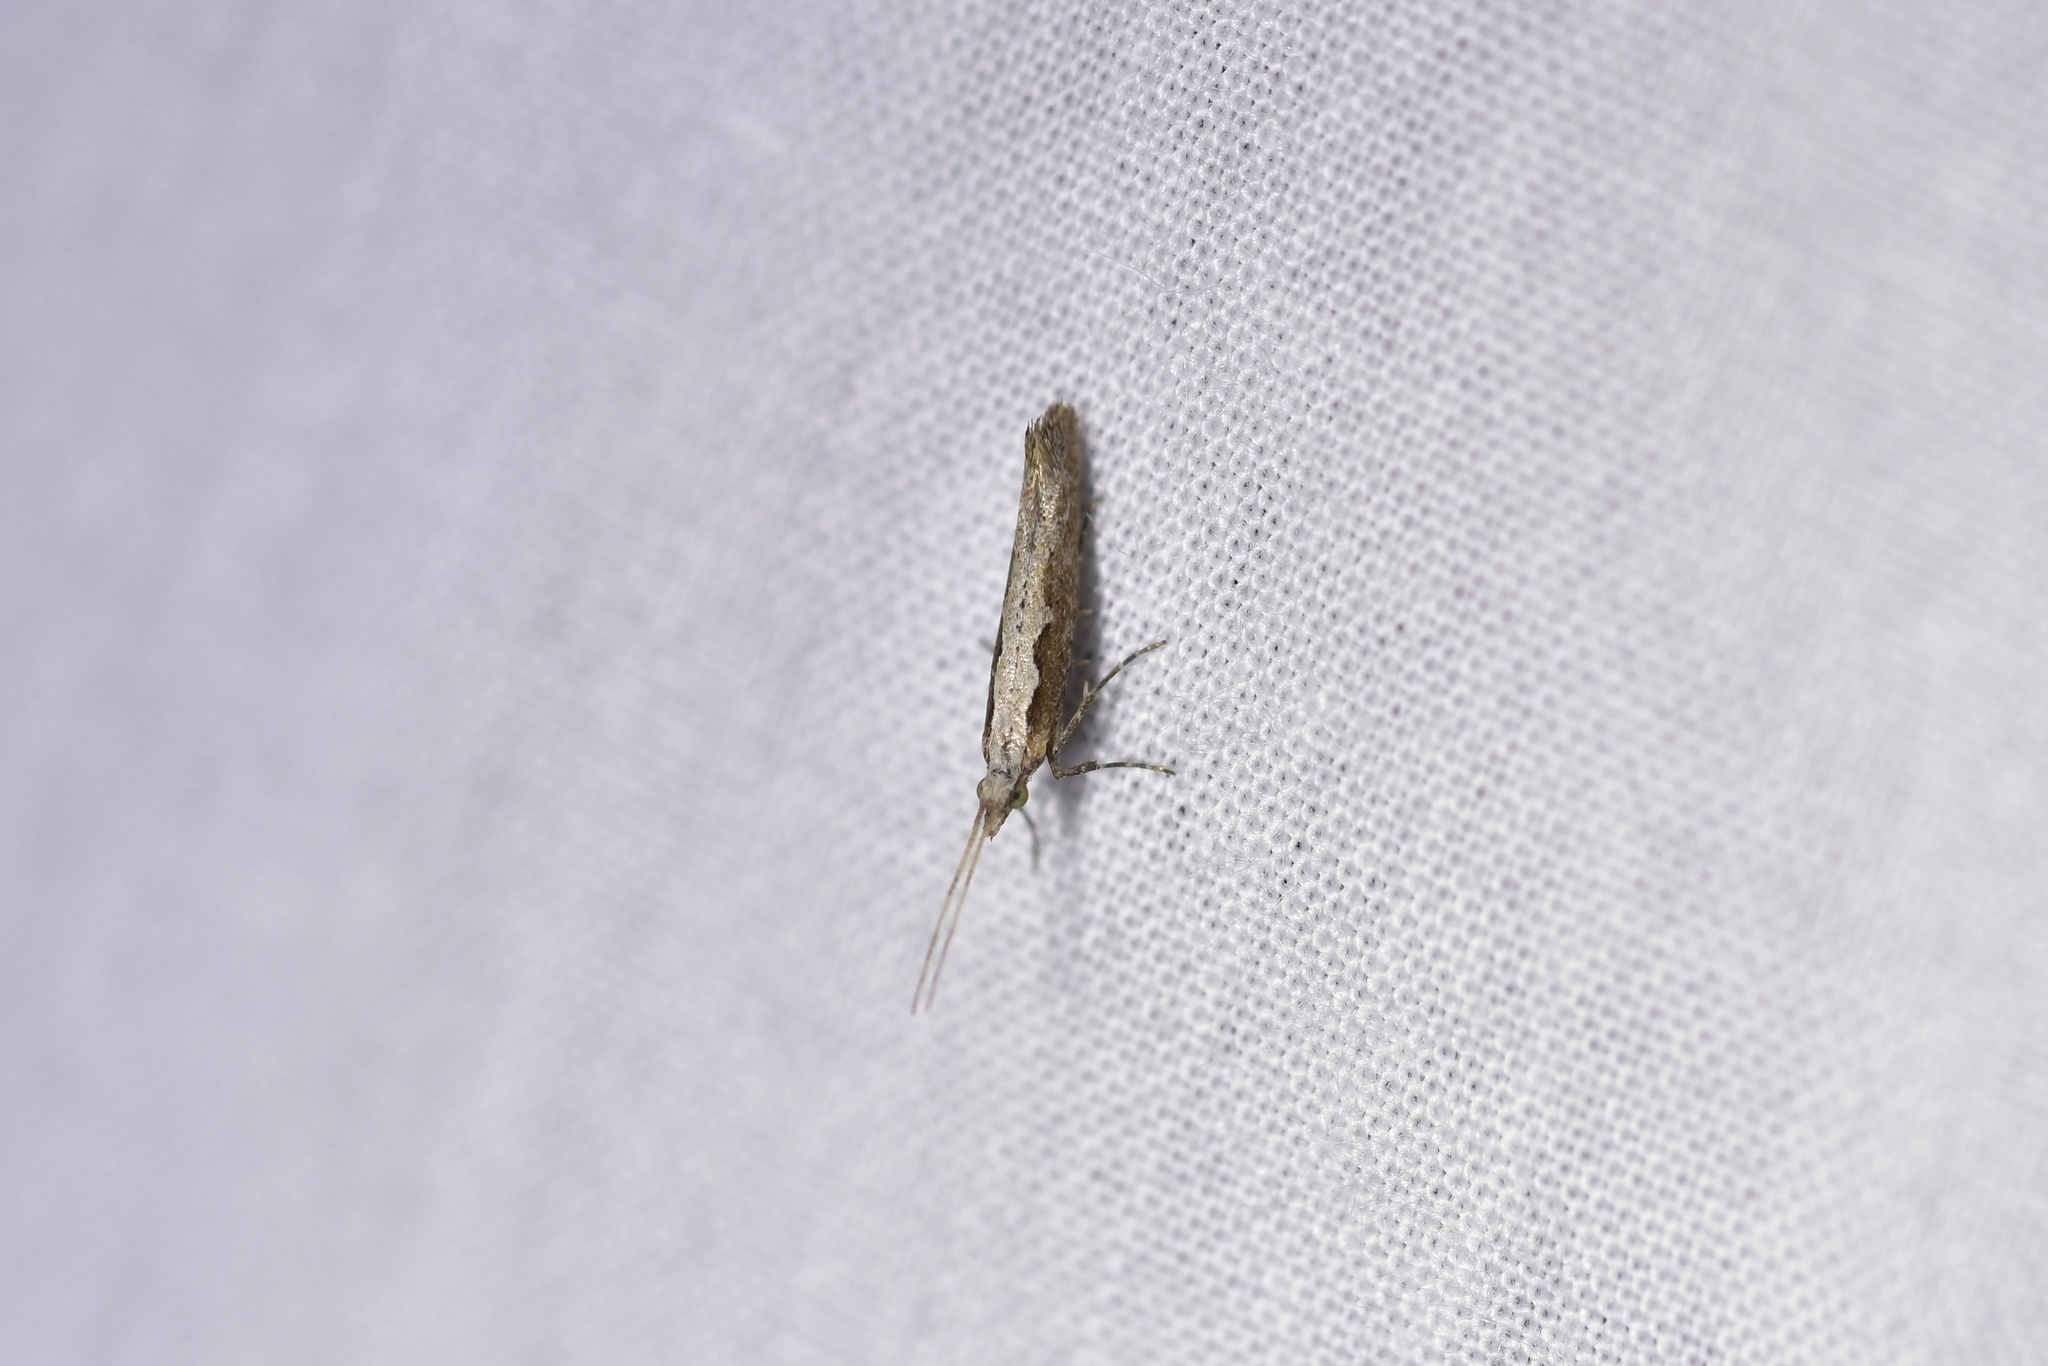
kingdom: Animalia
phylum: Arthropoda
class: Insecta
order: Lepidoptera
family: Plutellidae
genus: Plutella
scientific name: Plutella xylostella
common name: Diamond-back moth
